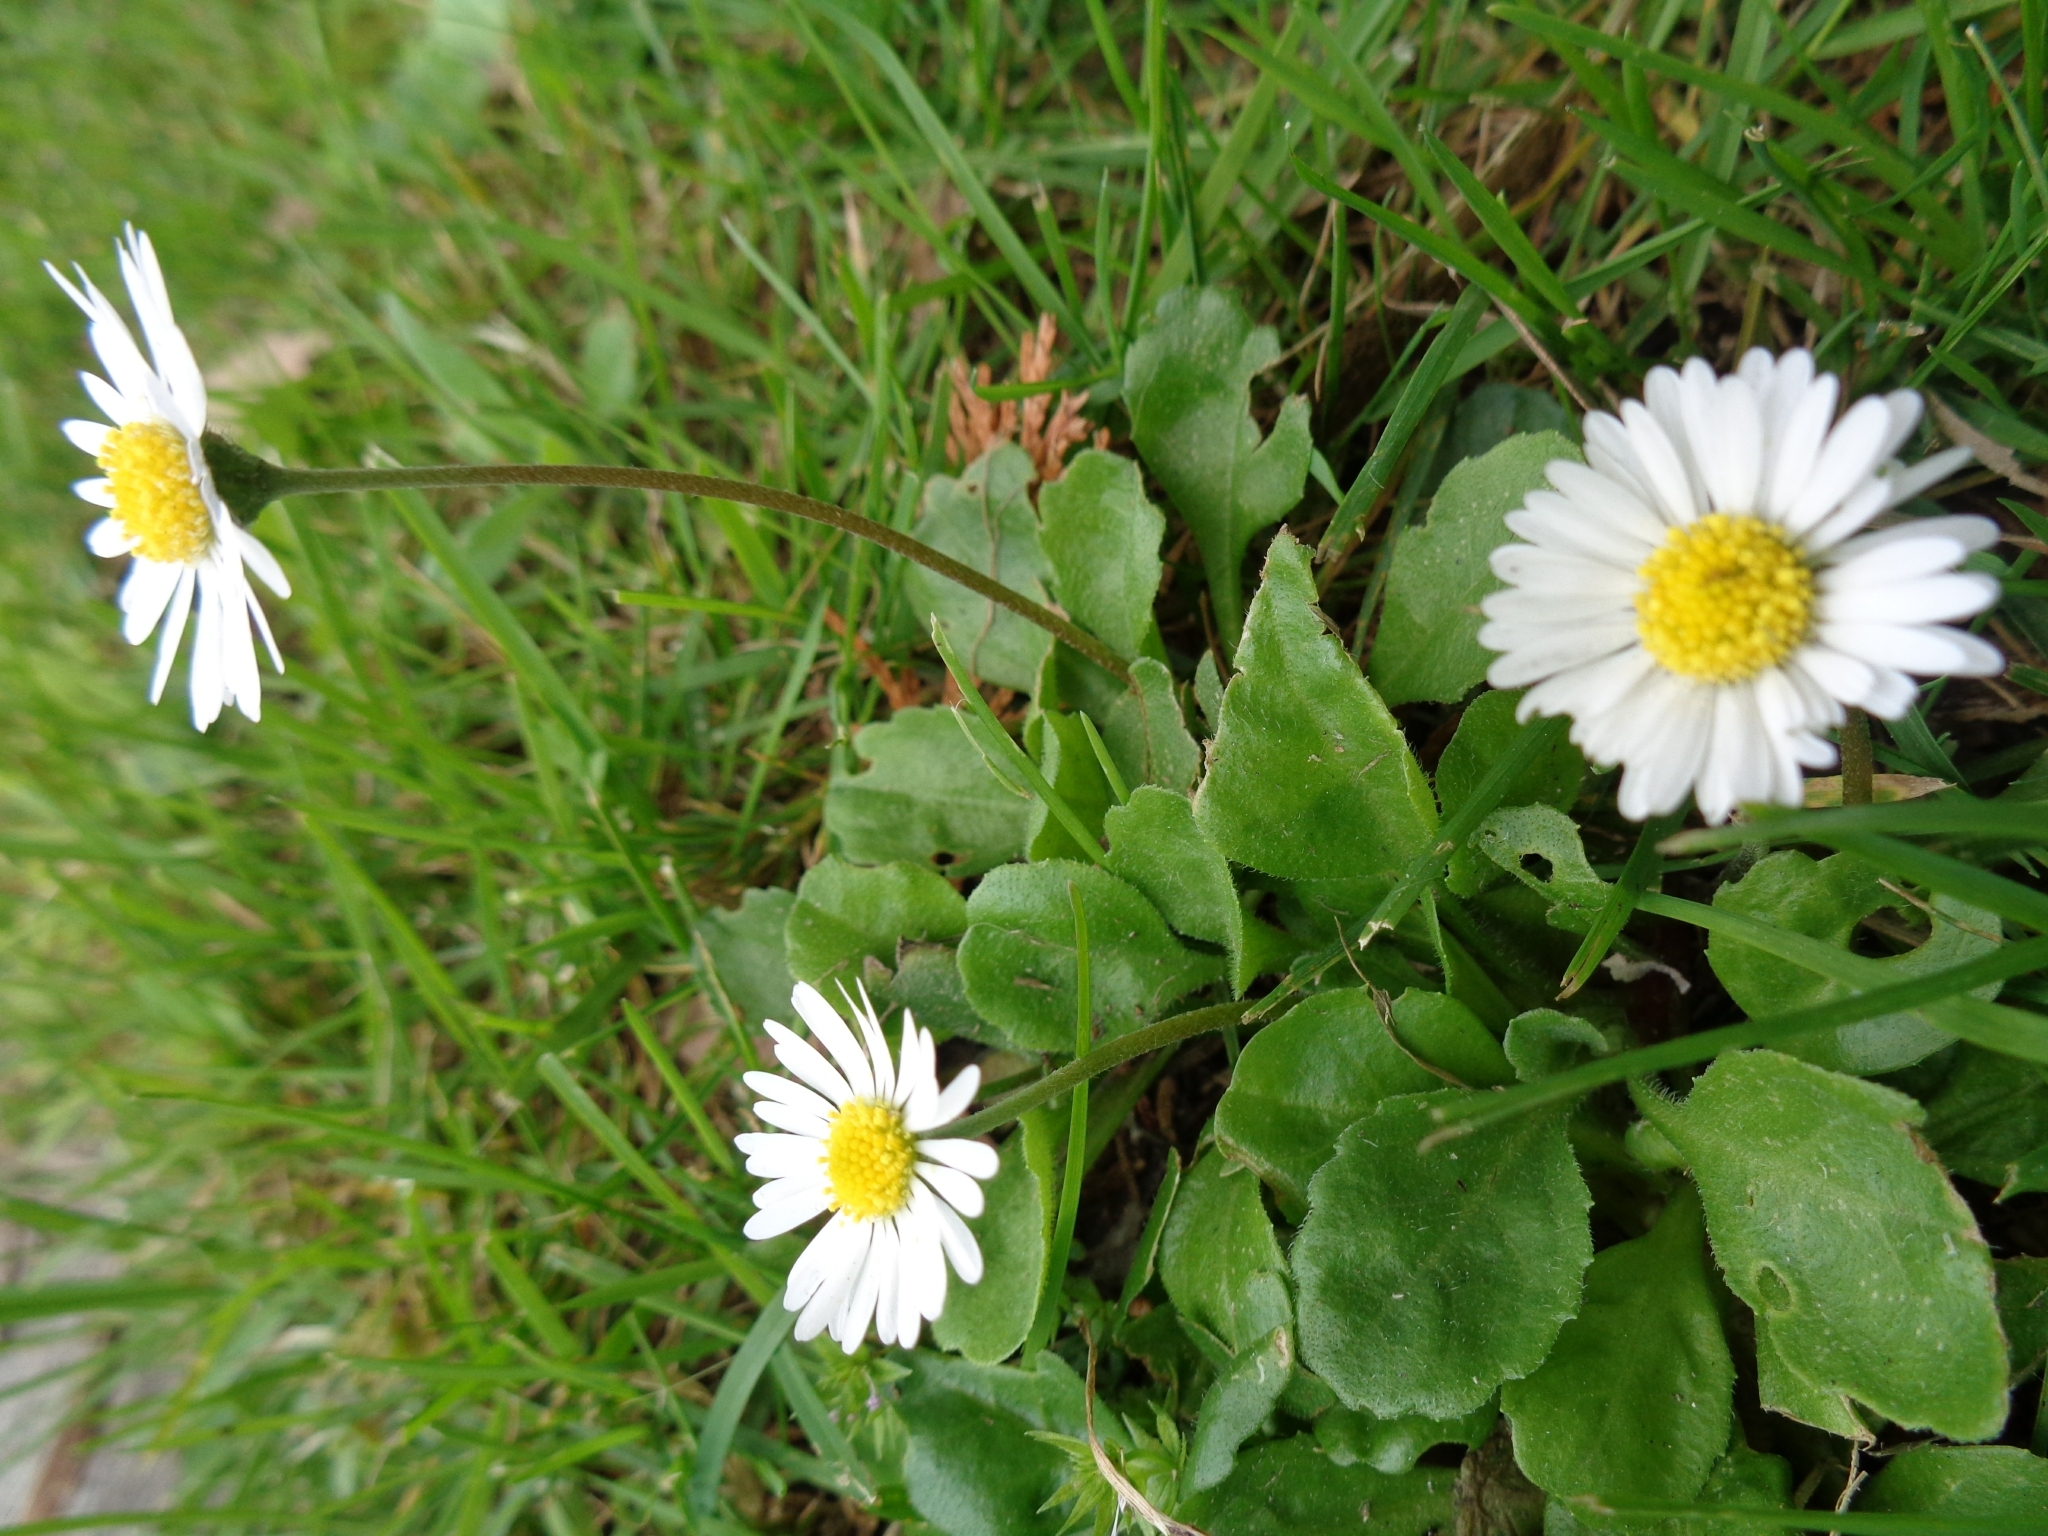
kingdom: Plantae
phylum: Tracheophyta
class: Magnoliopsida
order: Asterales
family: Asteraceae
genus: Bellis
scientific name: Bellis perennis
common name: Lawndaisy
